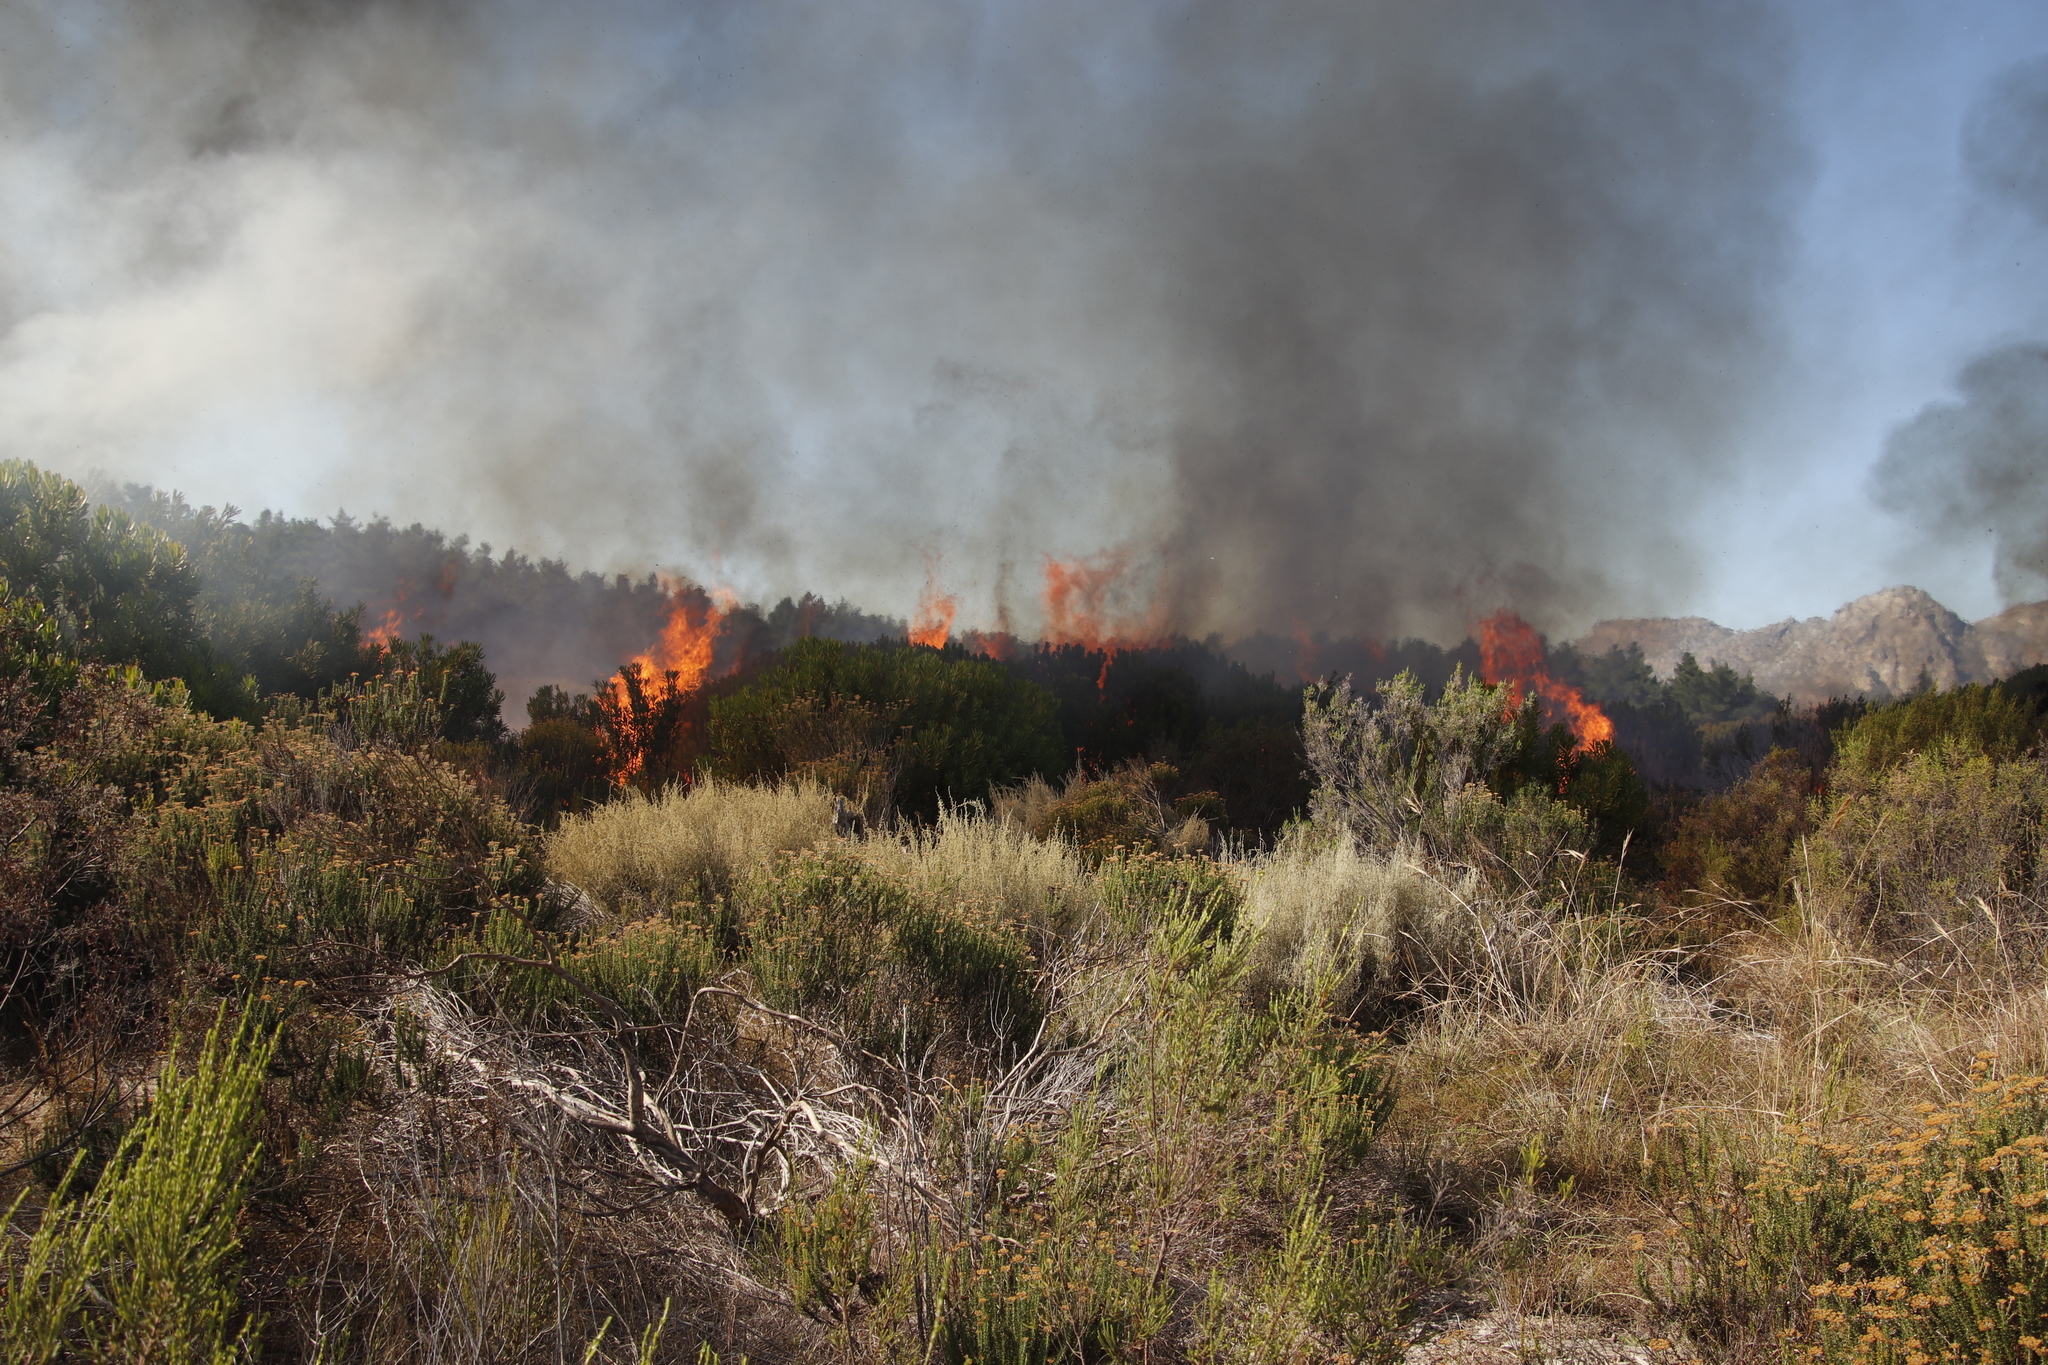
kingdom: Plantae
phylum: Tracheophyta
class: Liliopsida
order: Poales
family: Poaceae
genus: Pseudopentameris
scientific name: Pseudopentameris caespitosa
